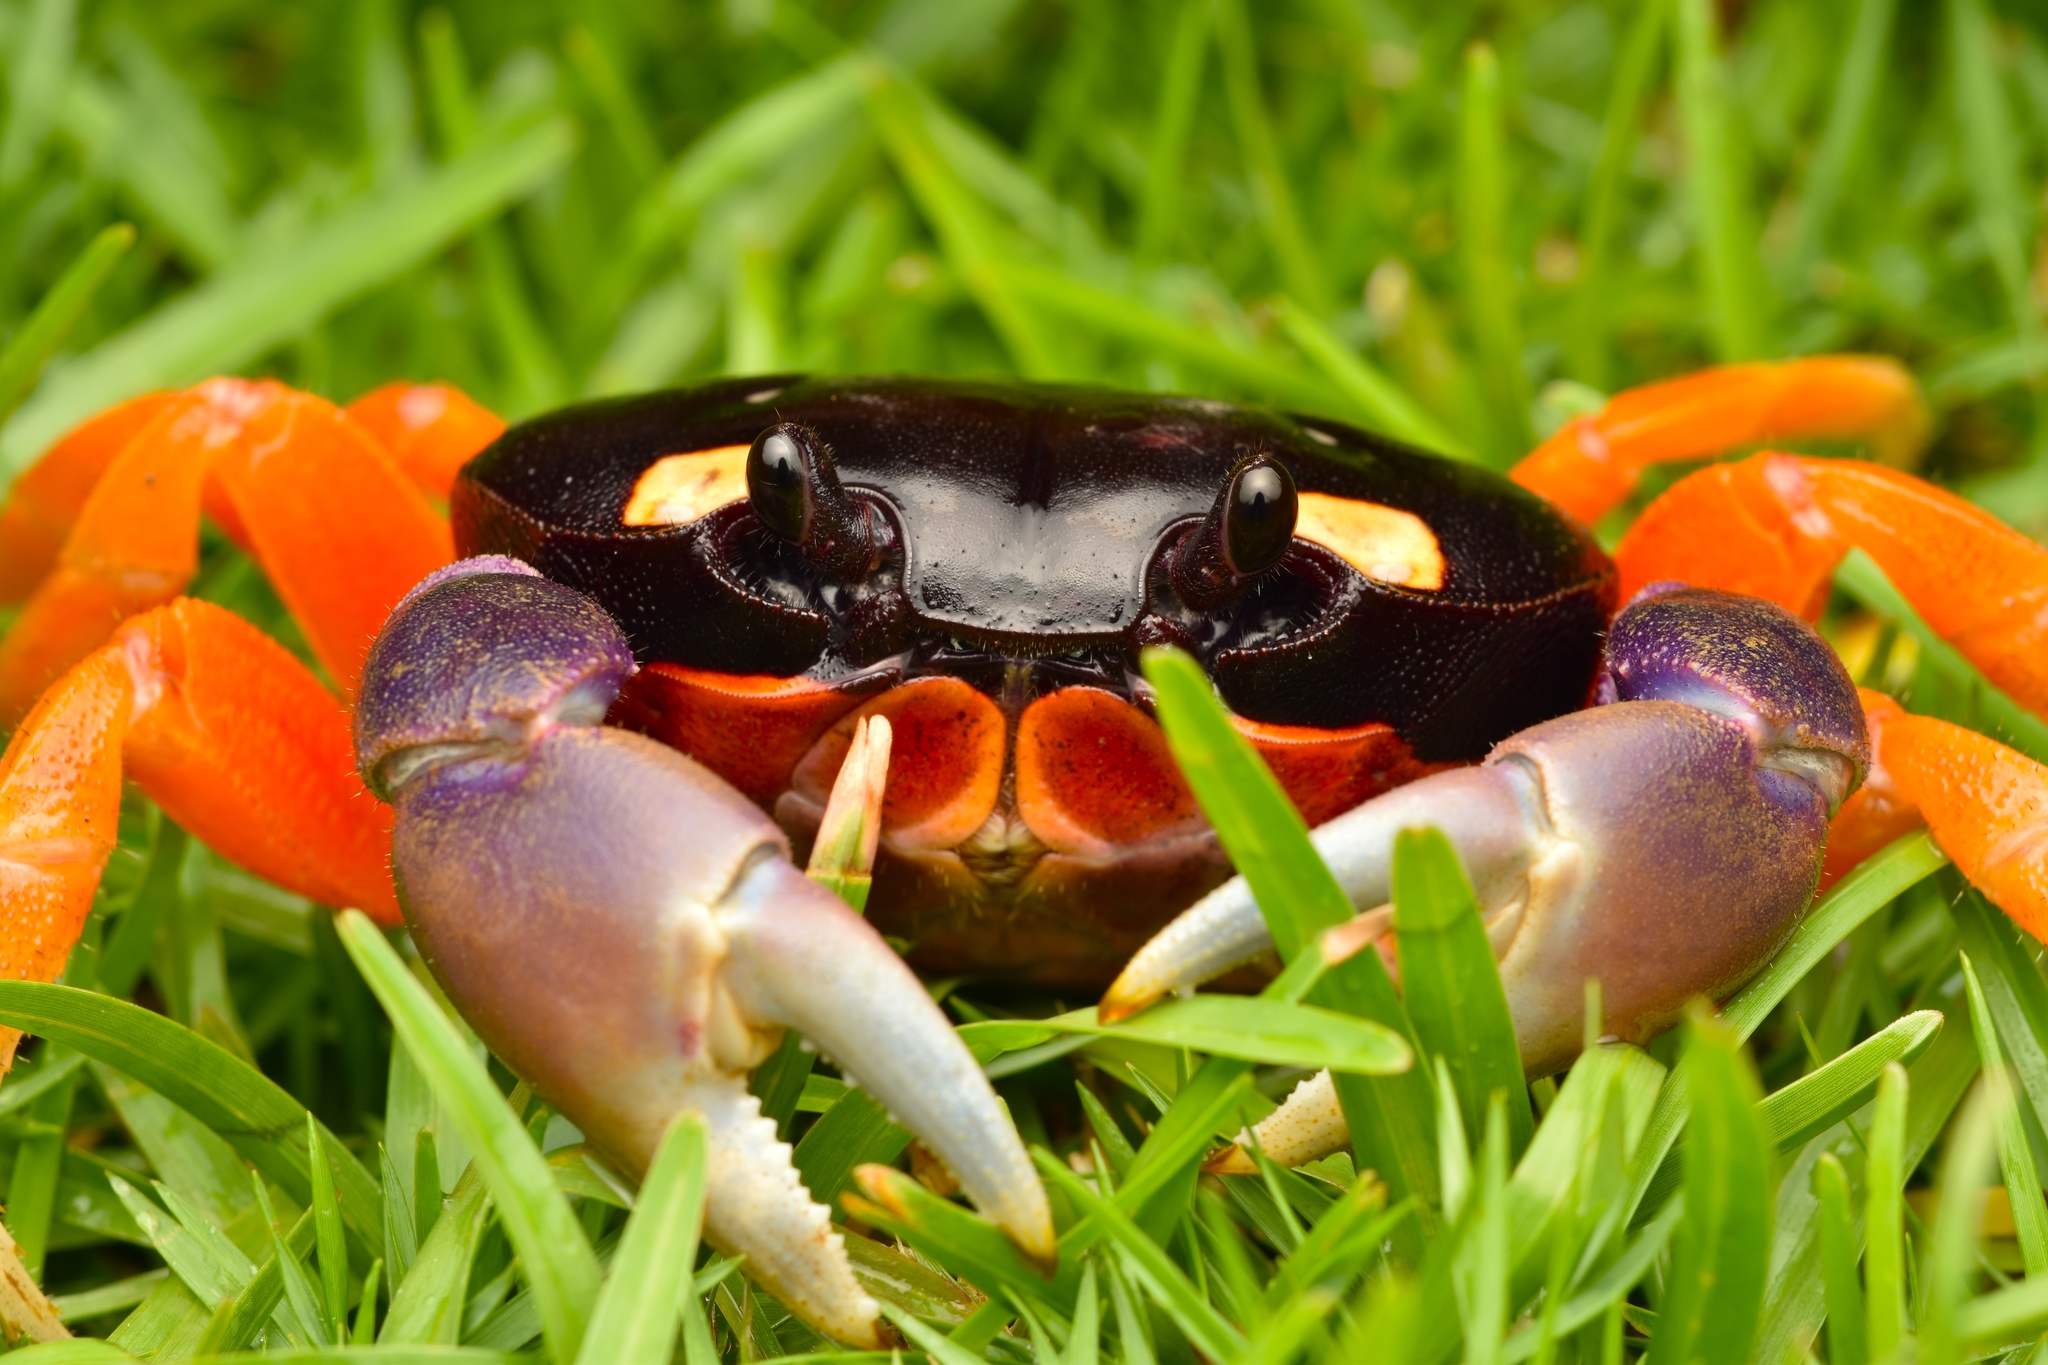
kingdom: Animalia
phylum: Arthropoda
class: Malacostraca
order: Decapoda
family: Gecarcinidae
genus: Gecarcinus
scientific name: Gecarcinus quadratus
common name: Halloween crab
